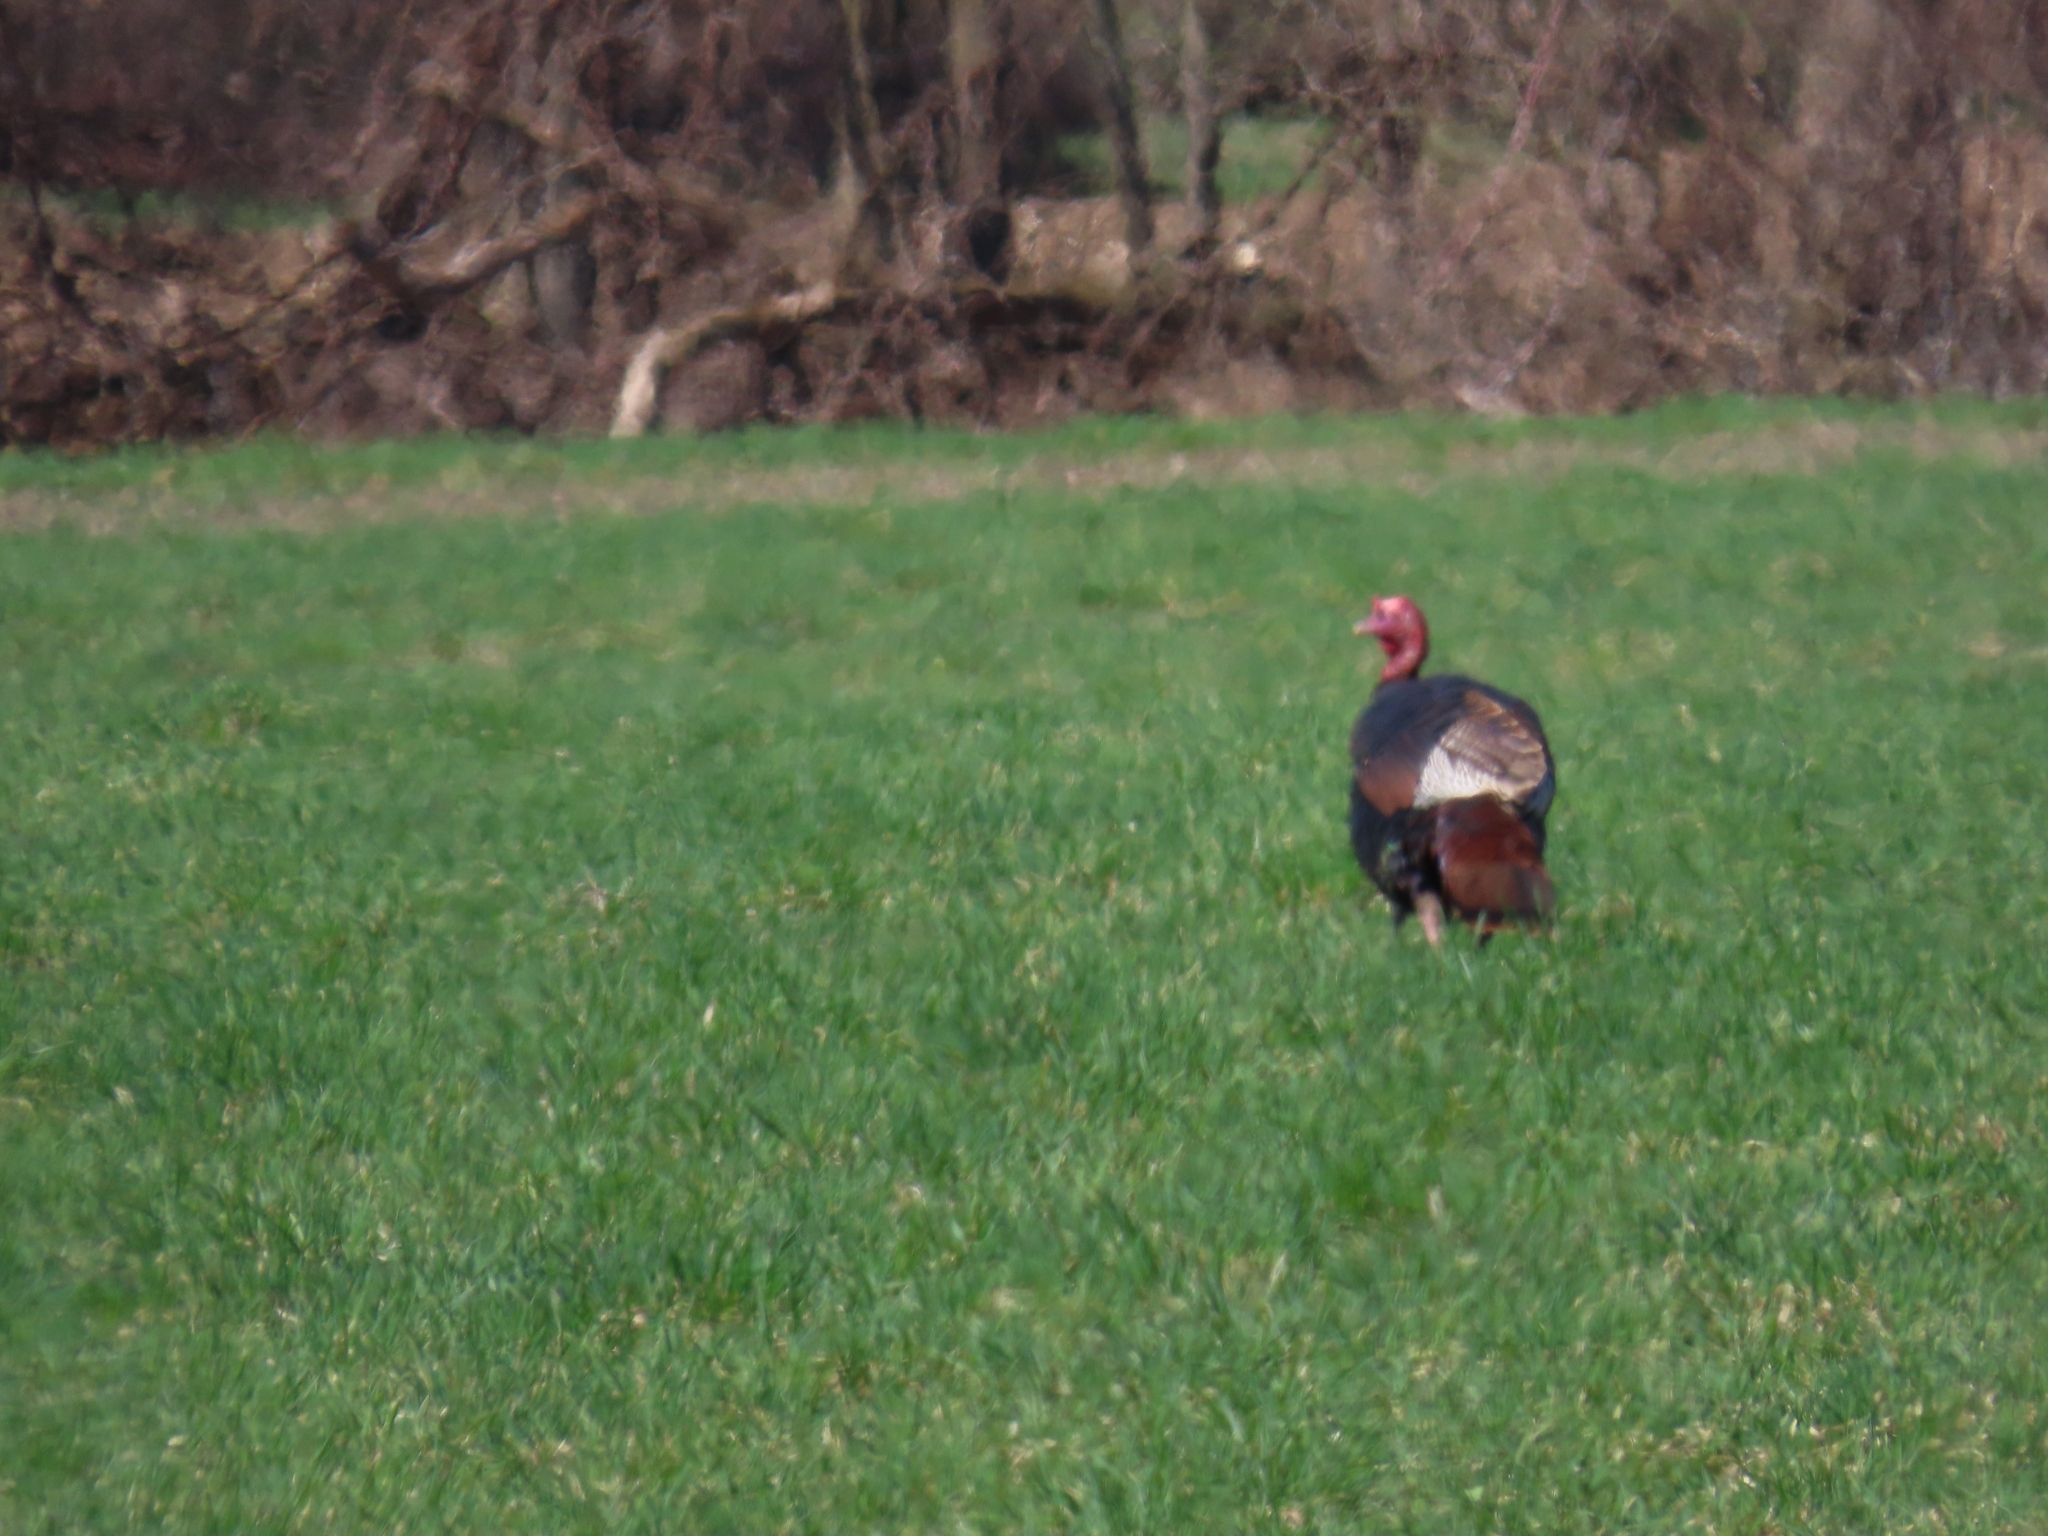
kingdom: Animalia
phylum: Chordata
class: Aves
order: Galliformes
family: Phasianidae
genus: Meleagris
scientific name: Meleagris gallopavo
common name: Wild turkey
